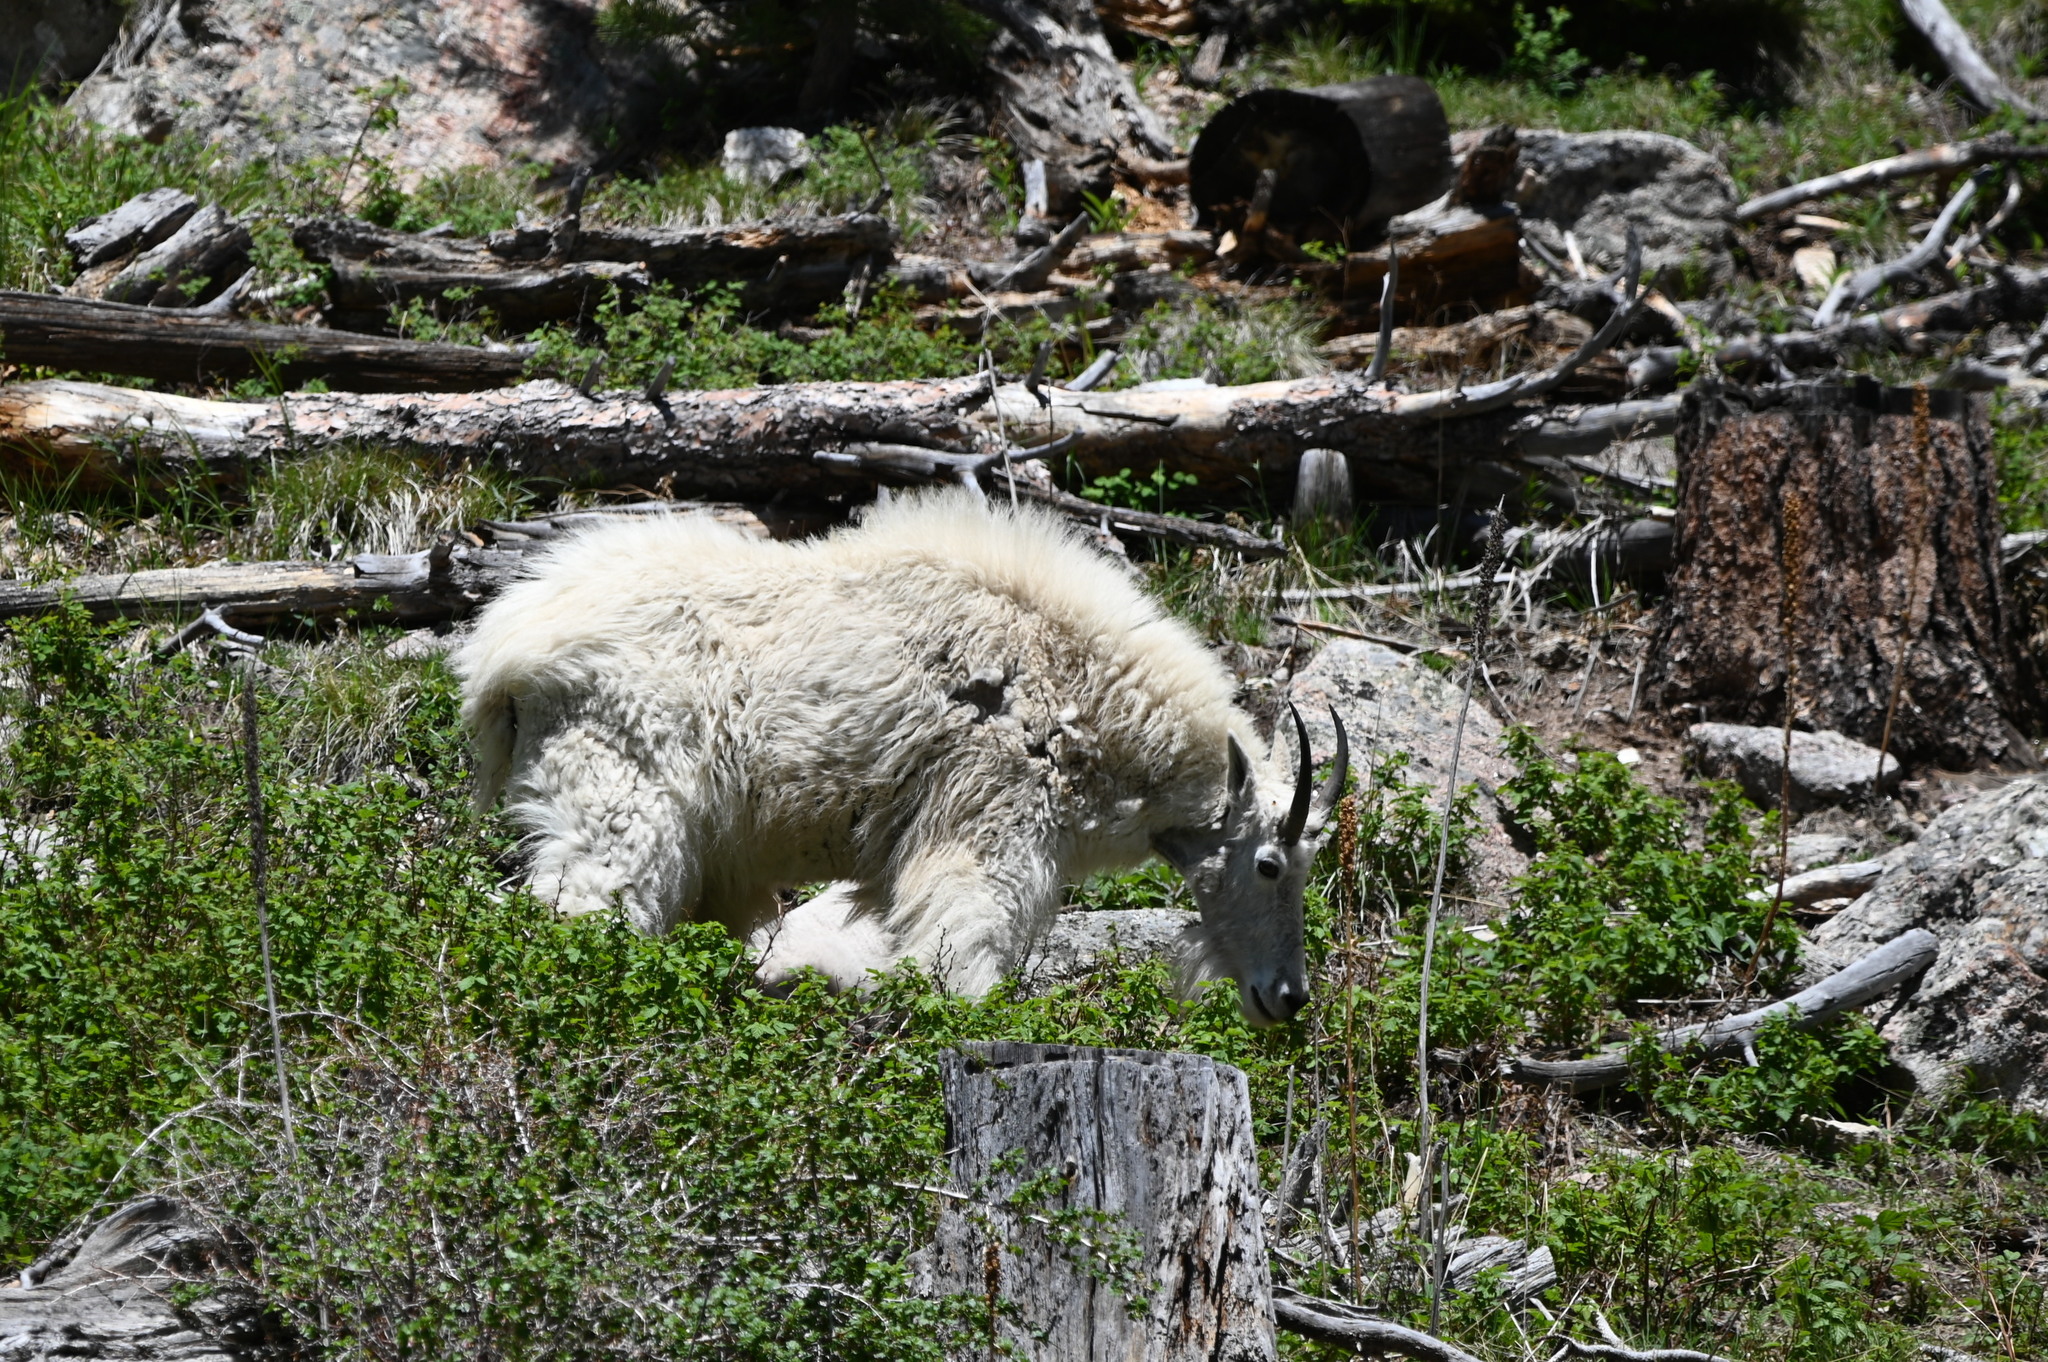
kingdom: Animalia
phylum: Chordata
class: Mammalia
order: Artiodactyla
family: Bovidae
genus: Oreamnos
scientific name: Oreamnos americanus
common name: Mountain goat
